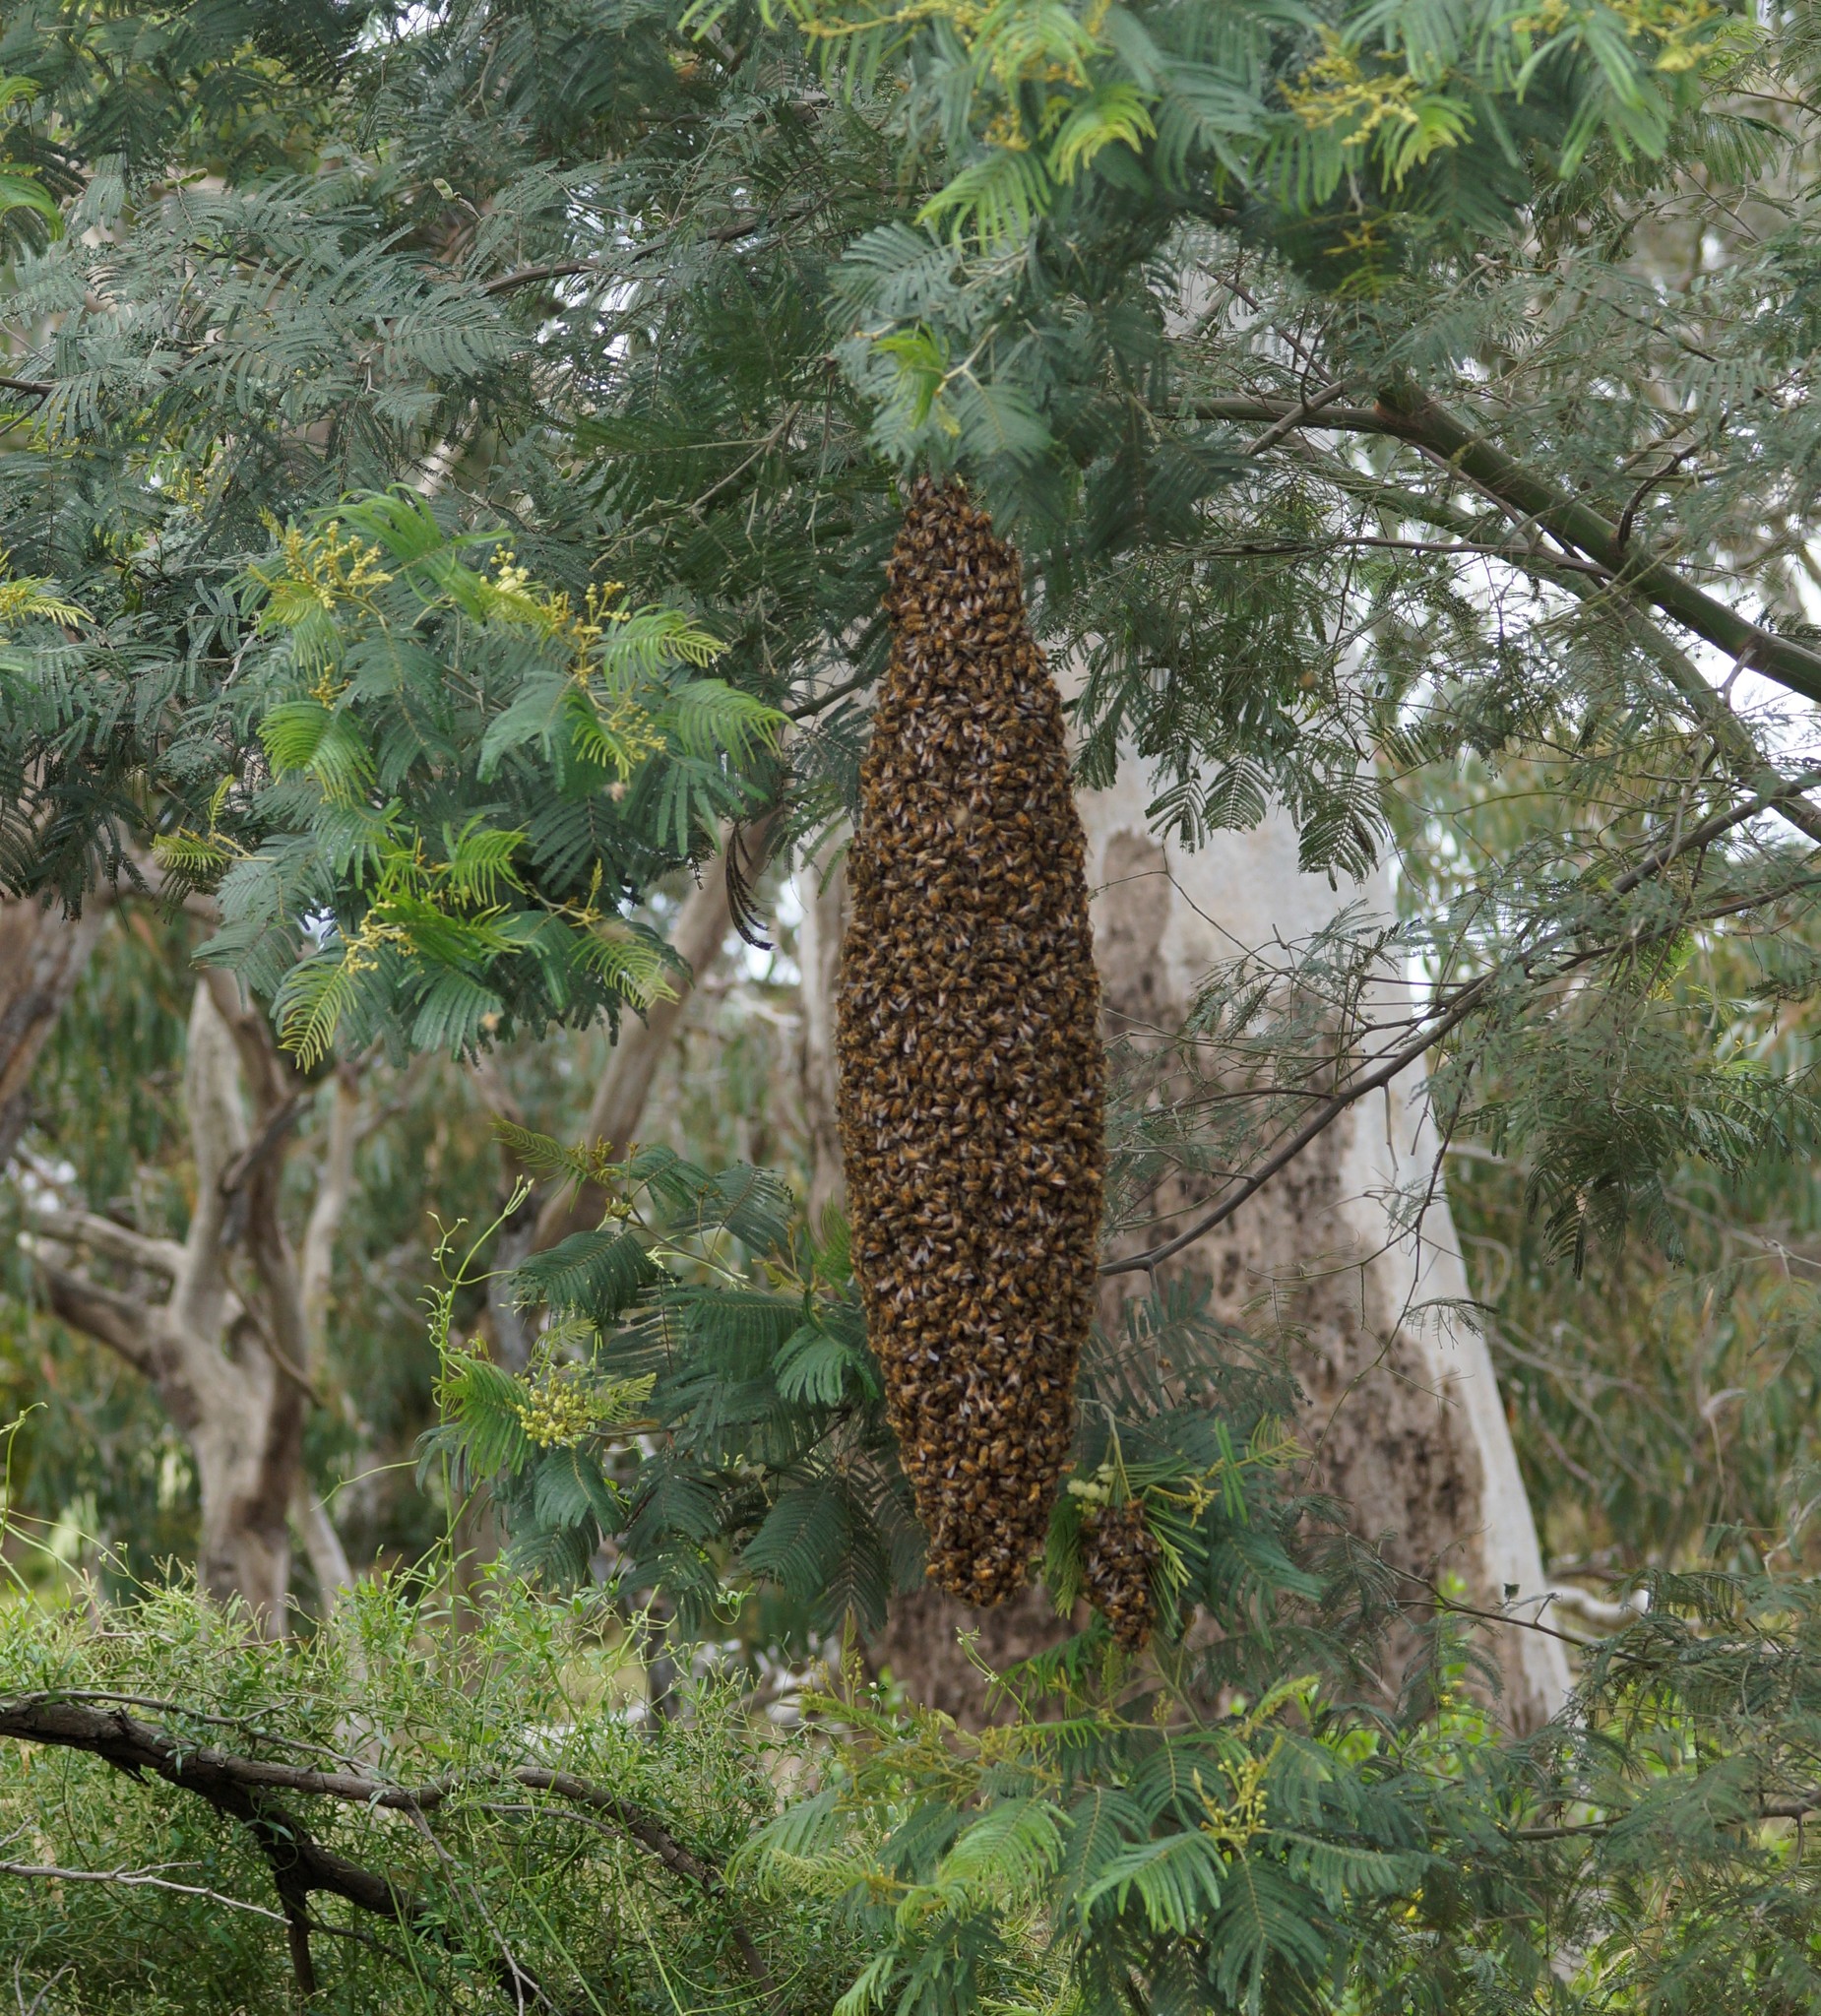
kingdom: Animalia
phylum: Arthropoda
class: Insecta
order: Hymenoptera
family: Apidae
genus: Apis
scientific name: Apis mellifera
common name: Honey bee
